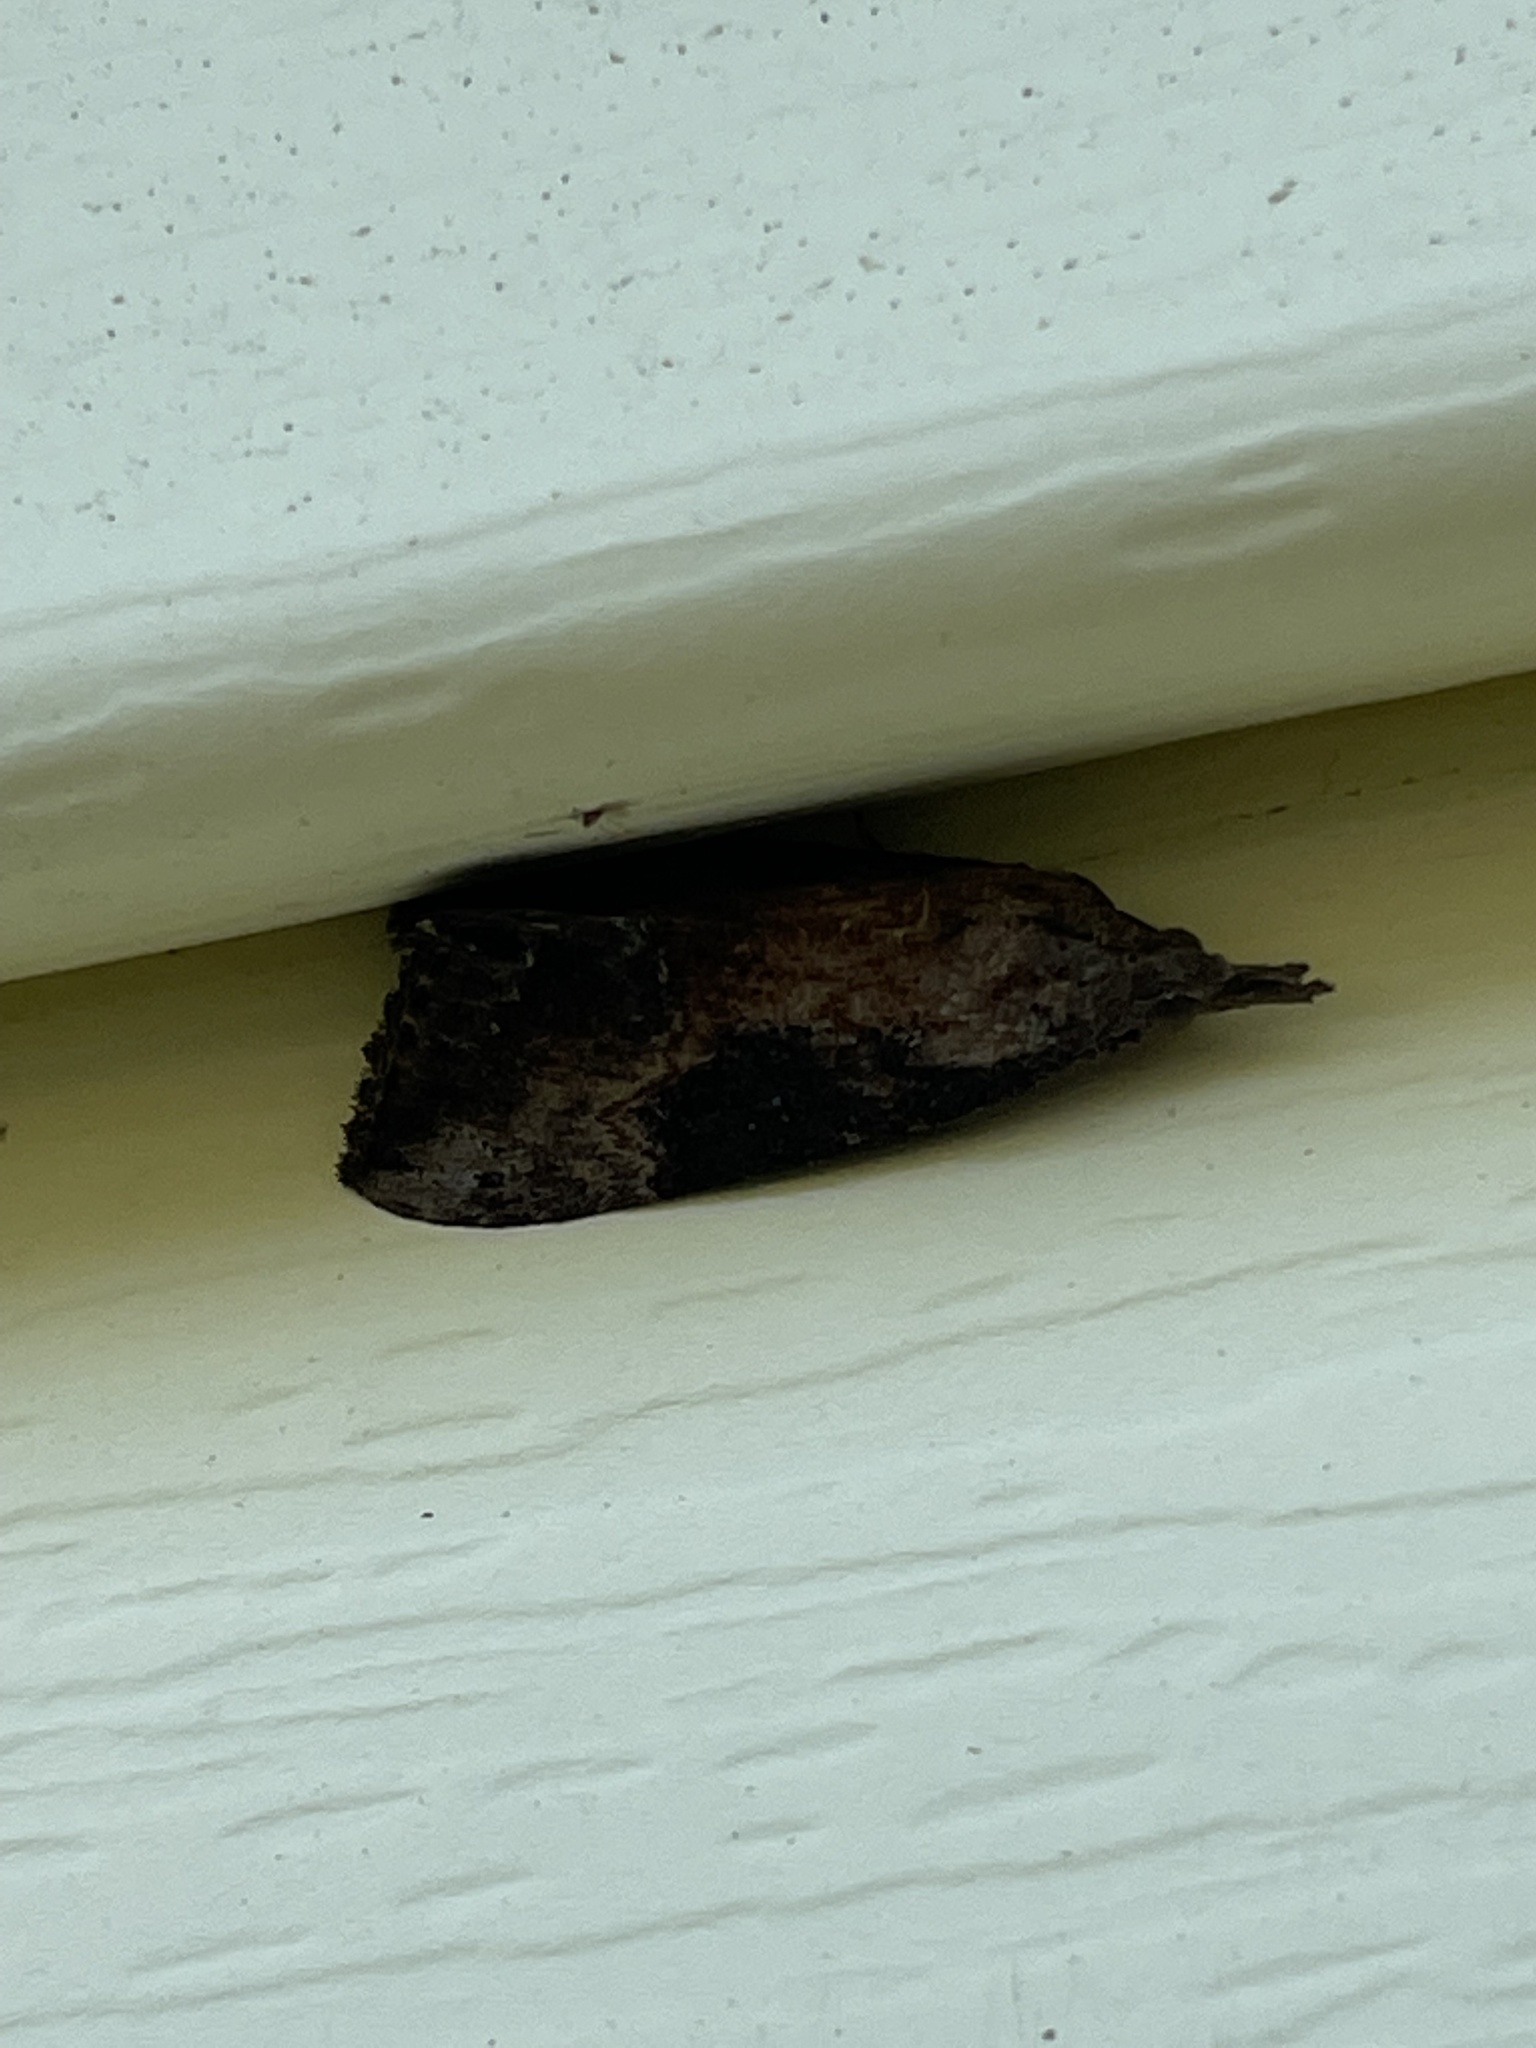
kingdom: Animalia
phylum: Arthropoda
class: Insecta
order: Lepidoptera
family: Erebidae
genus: Hypena
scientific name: Hypena scabra
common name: Green cloverworm
